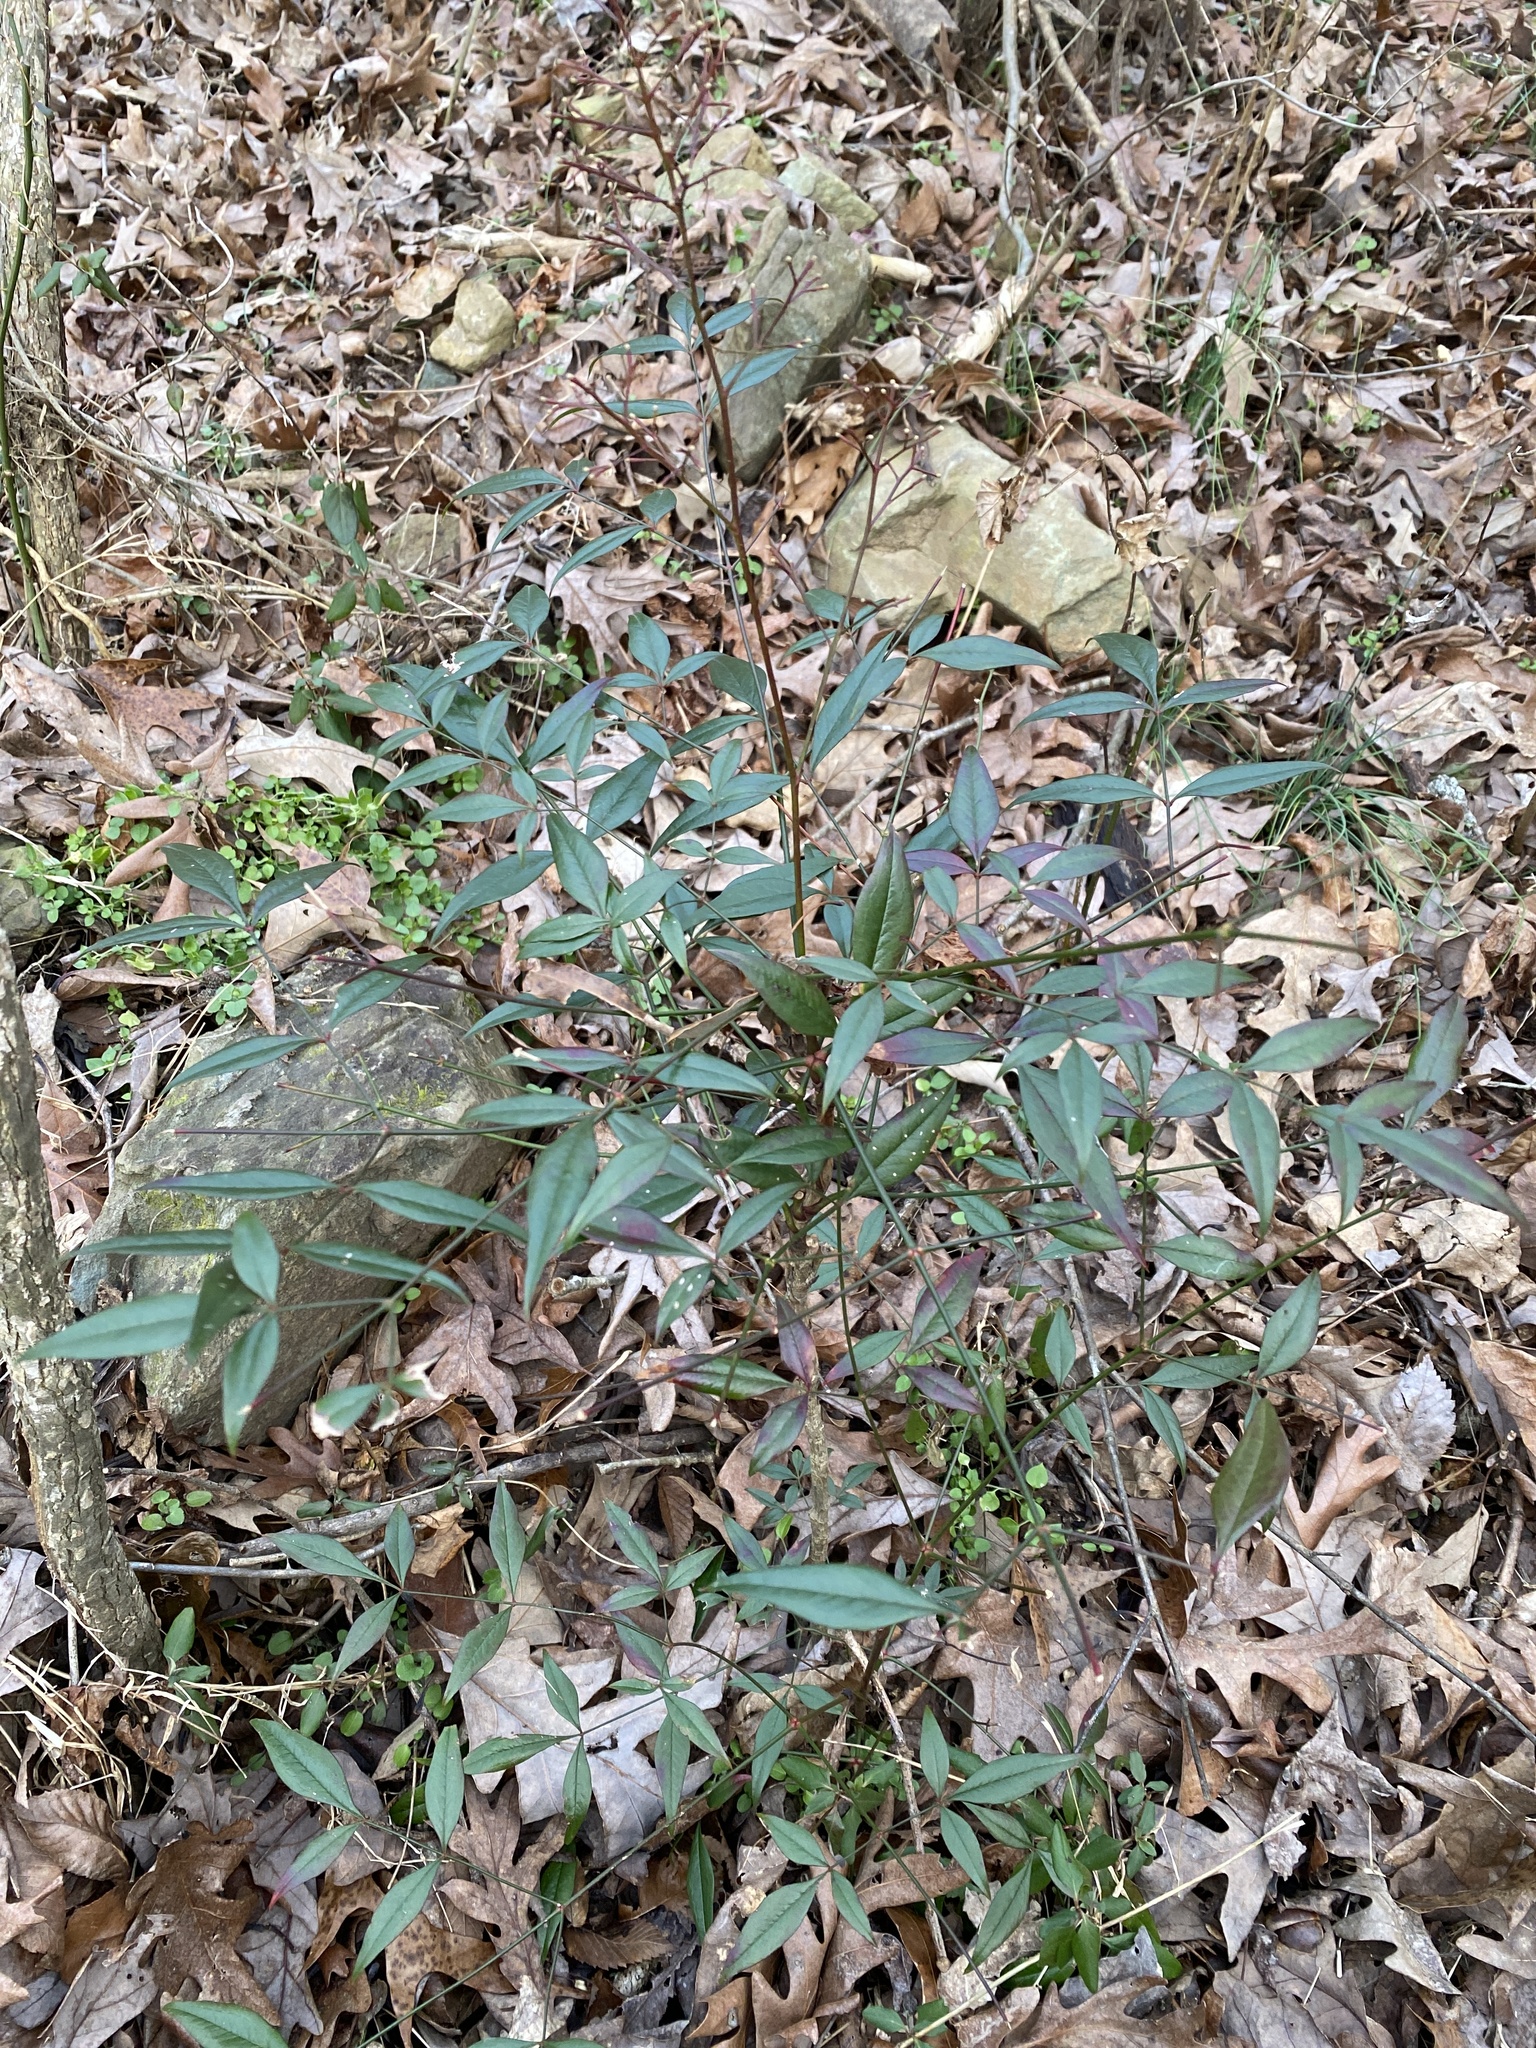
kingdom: Plantae
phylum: Tracheophyta
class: Magnoliopsida
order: Ranunculales
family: Berberidaceae
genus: Nandina
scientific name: Nandina domestica
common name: Sacred bamboo
